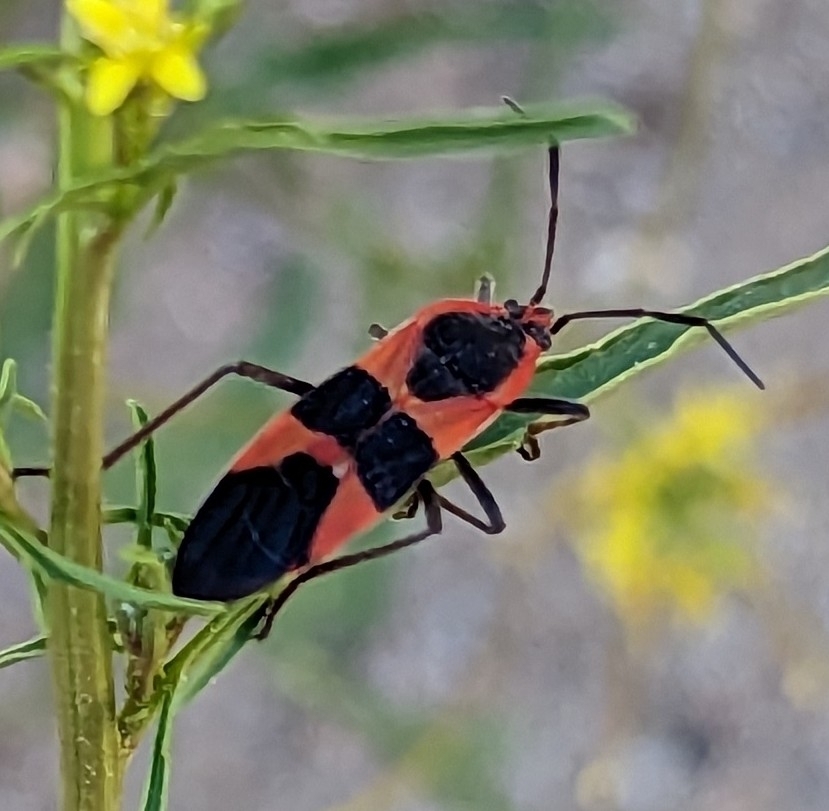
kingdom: Animalia
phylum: Arthropoda
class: Insecta
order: Hemiptera
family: Lygaeidae
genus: Oncopeltus
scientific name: Oncopeltus fasciatus
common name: Large milkweed bug
